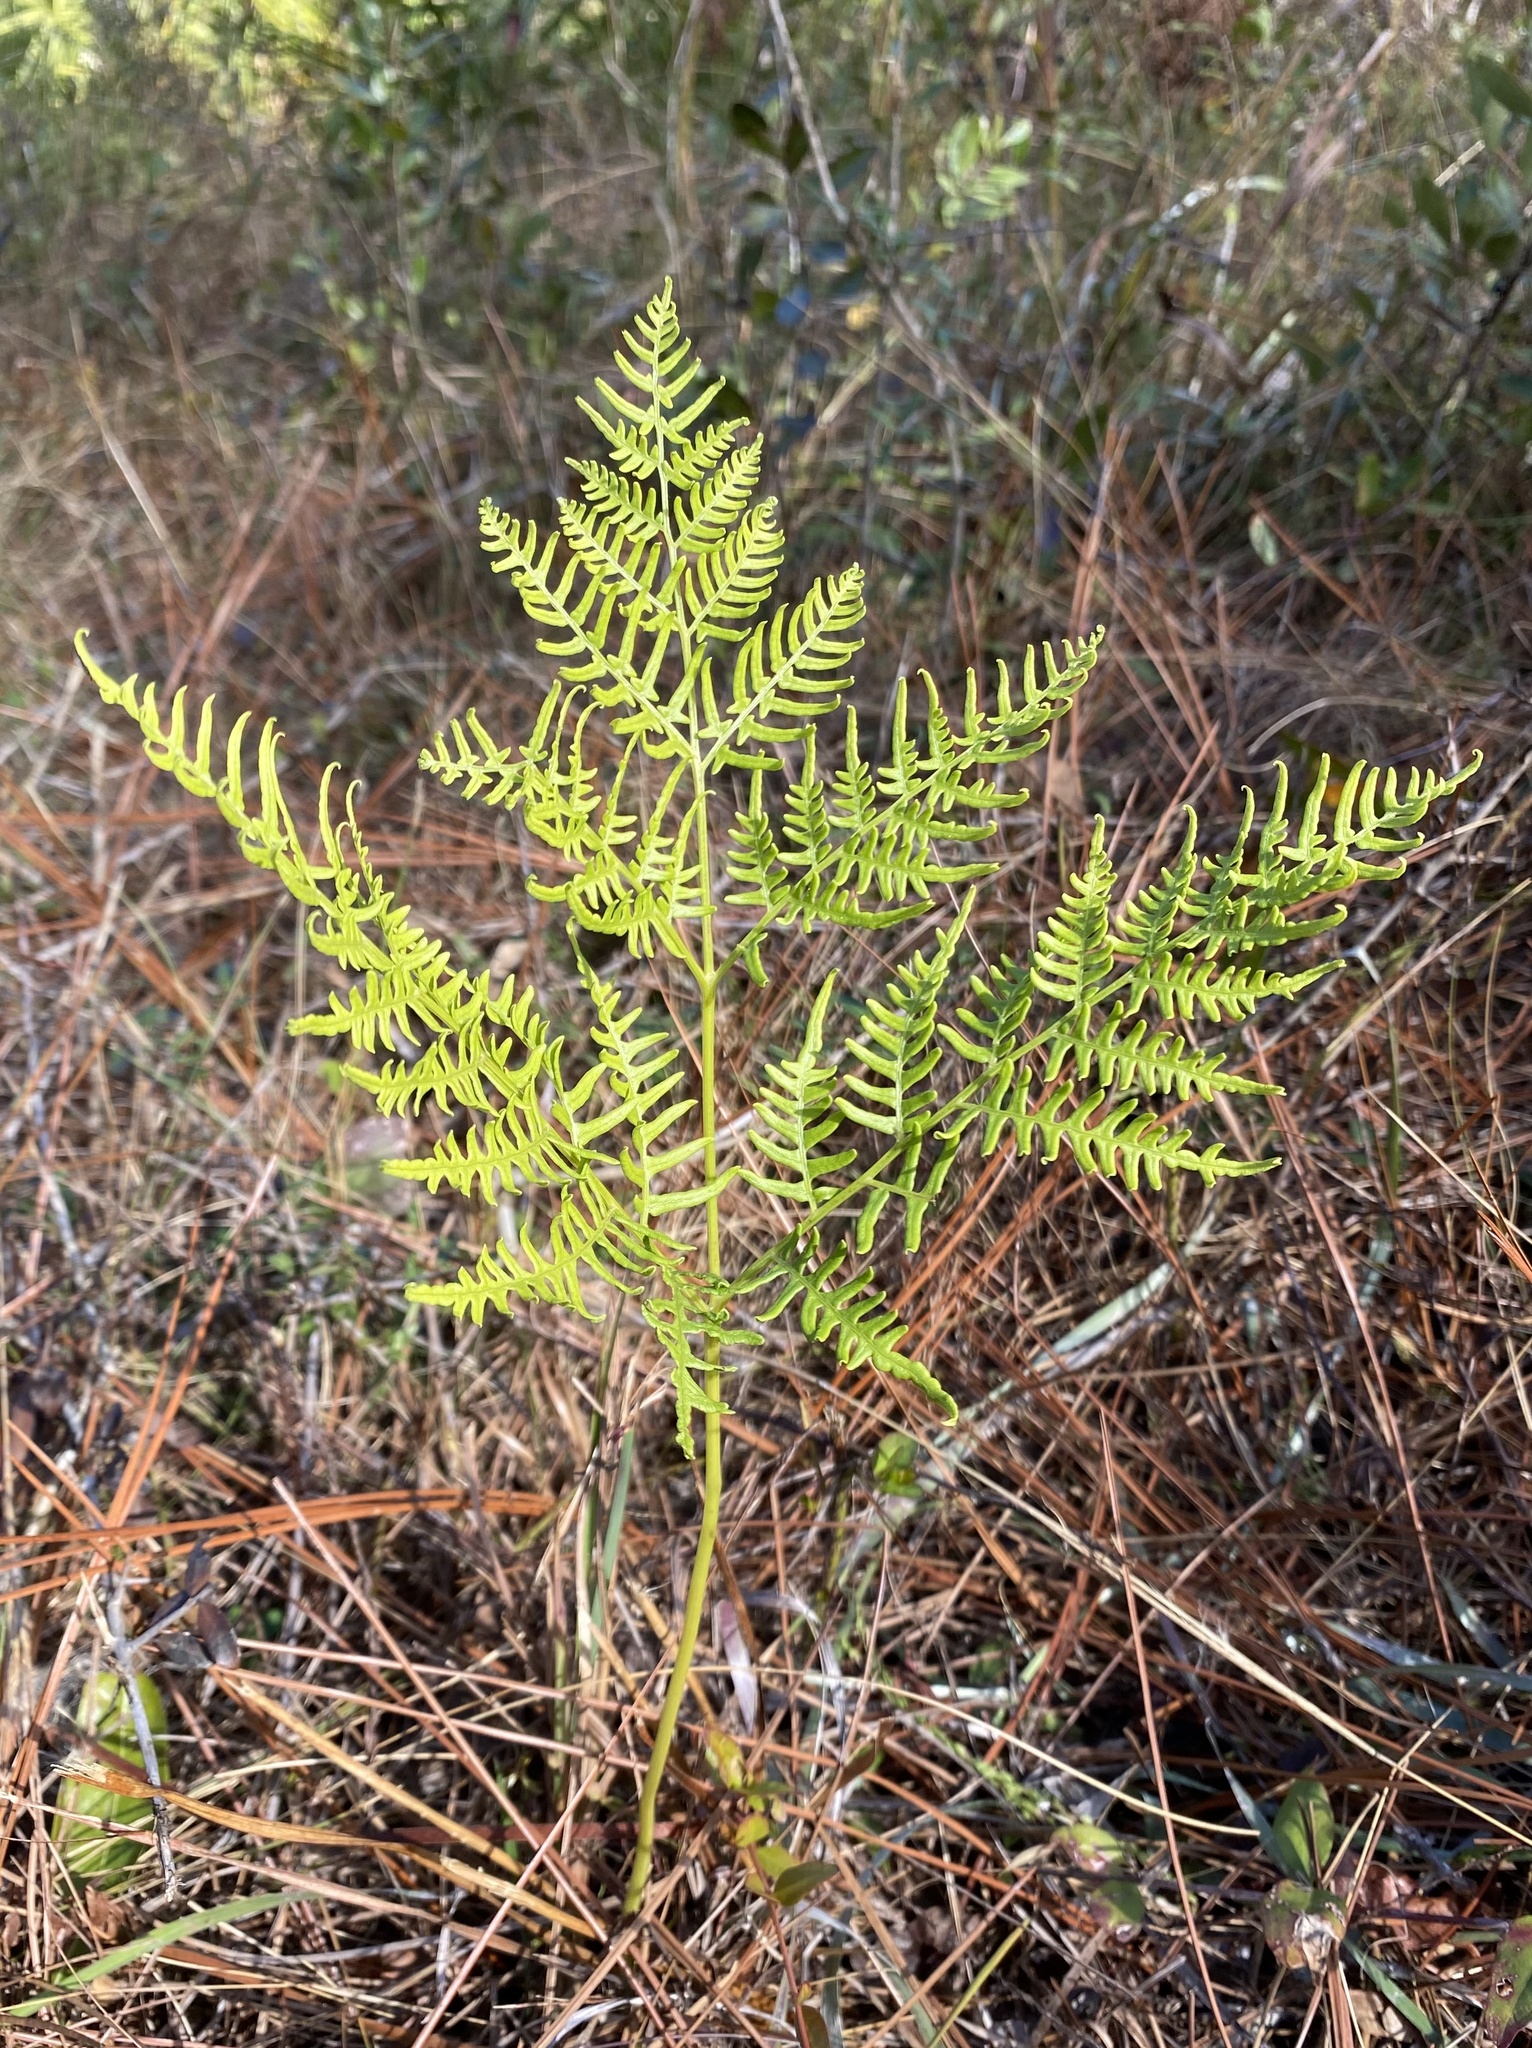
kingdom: Plantae
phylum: Tracheophyta
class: Polypodiopsida
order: Polypodiales
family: Dennstaedtiaceae
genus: Pteridium
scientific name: Pteridium aquilinum
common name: Bracken
